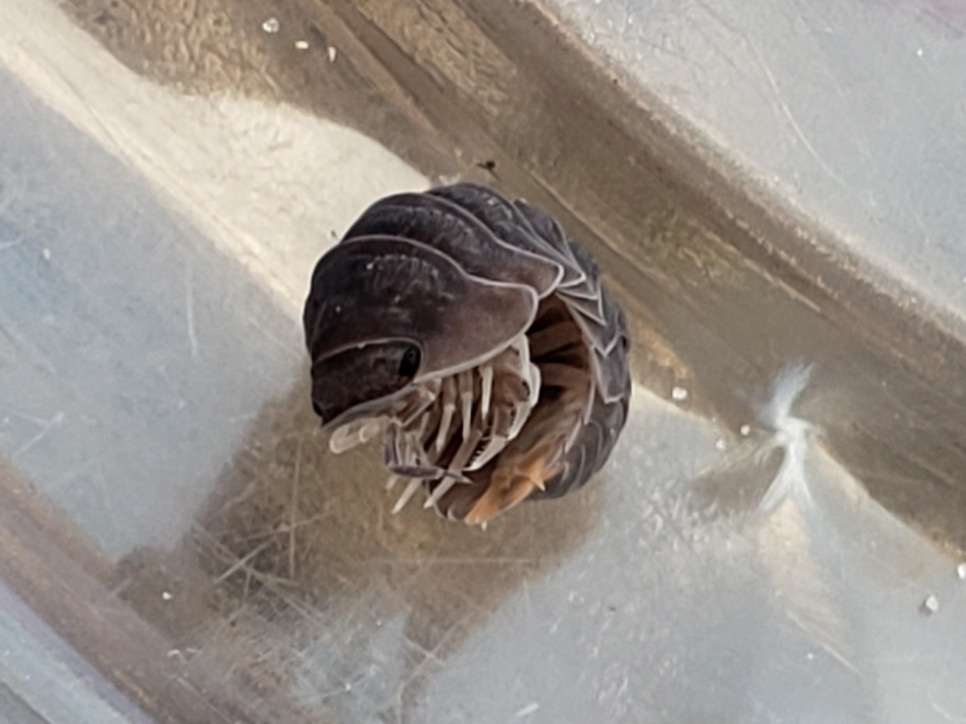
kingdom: Animalia
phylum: Arthropoda
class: Malacostraca
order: Isopoda
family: Armadillidae
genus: Cubaris
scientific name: Cubaris murina
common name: Pillbug
